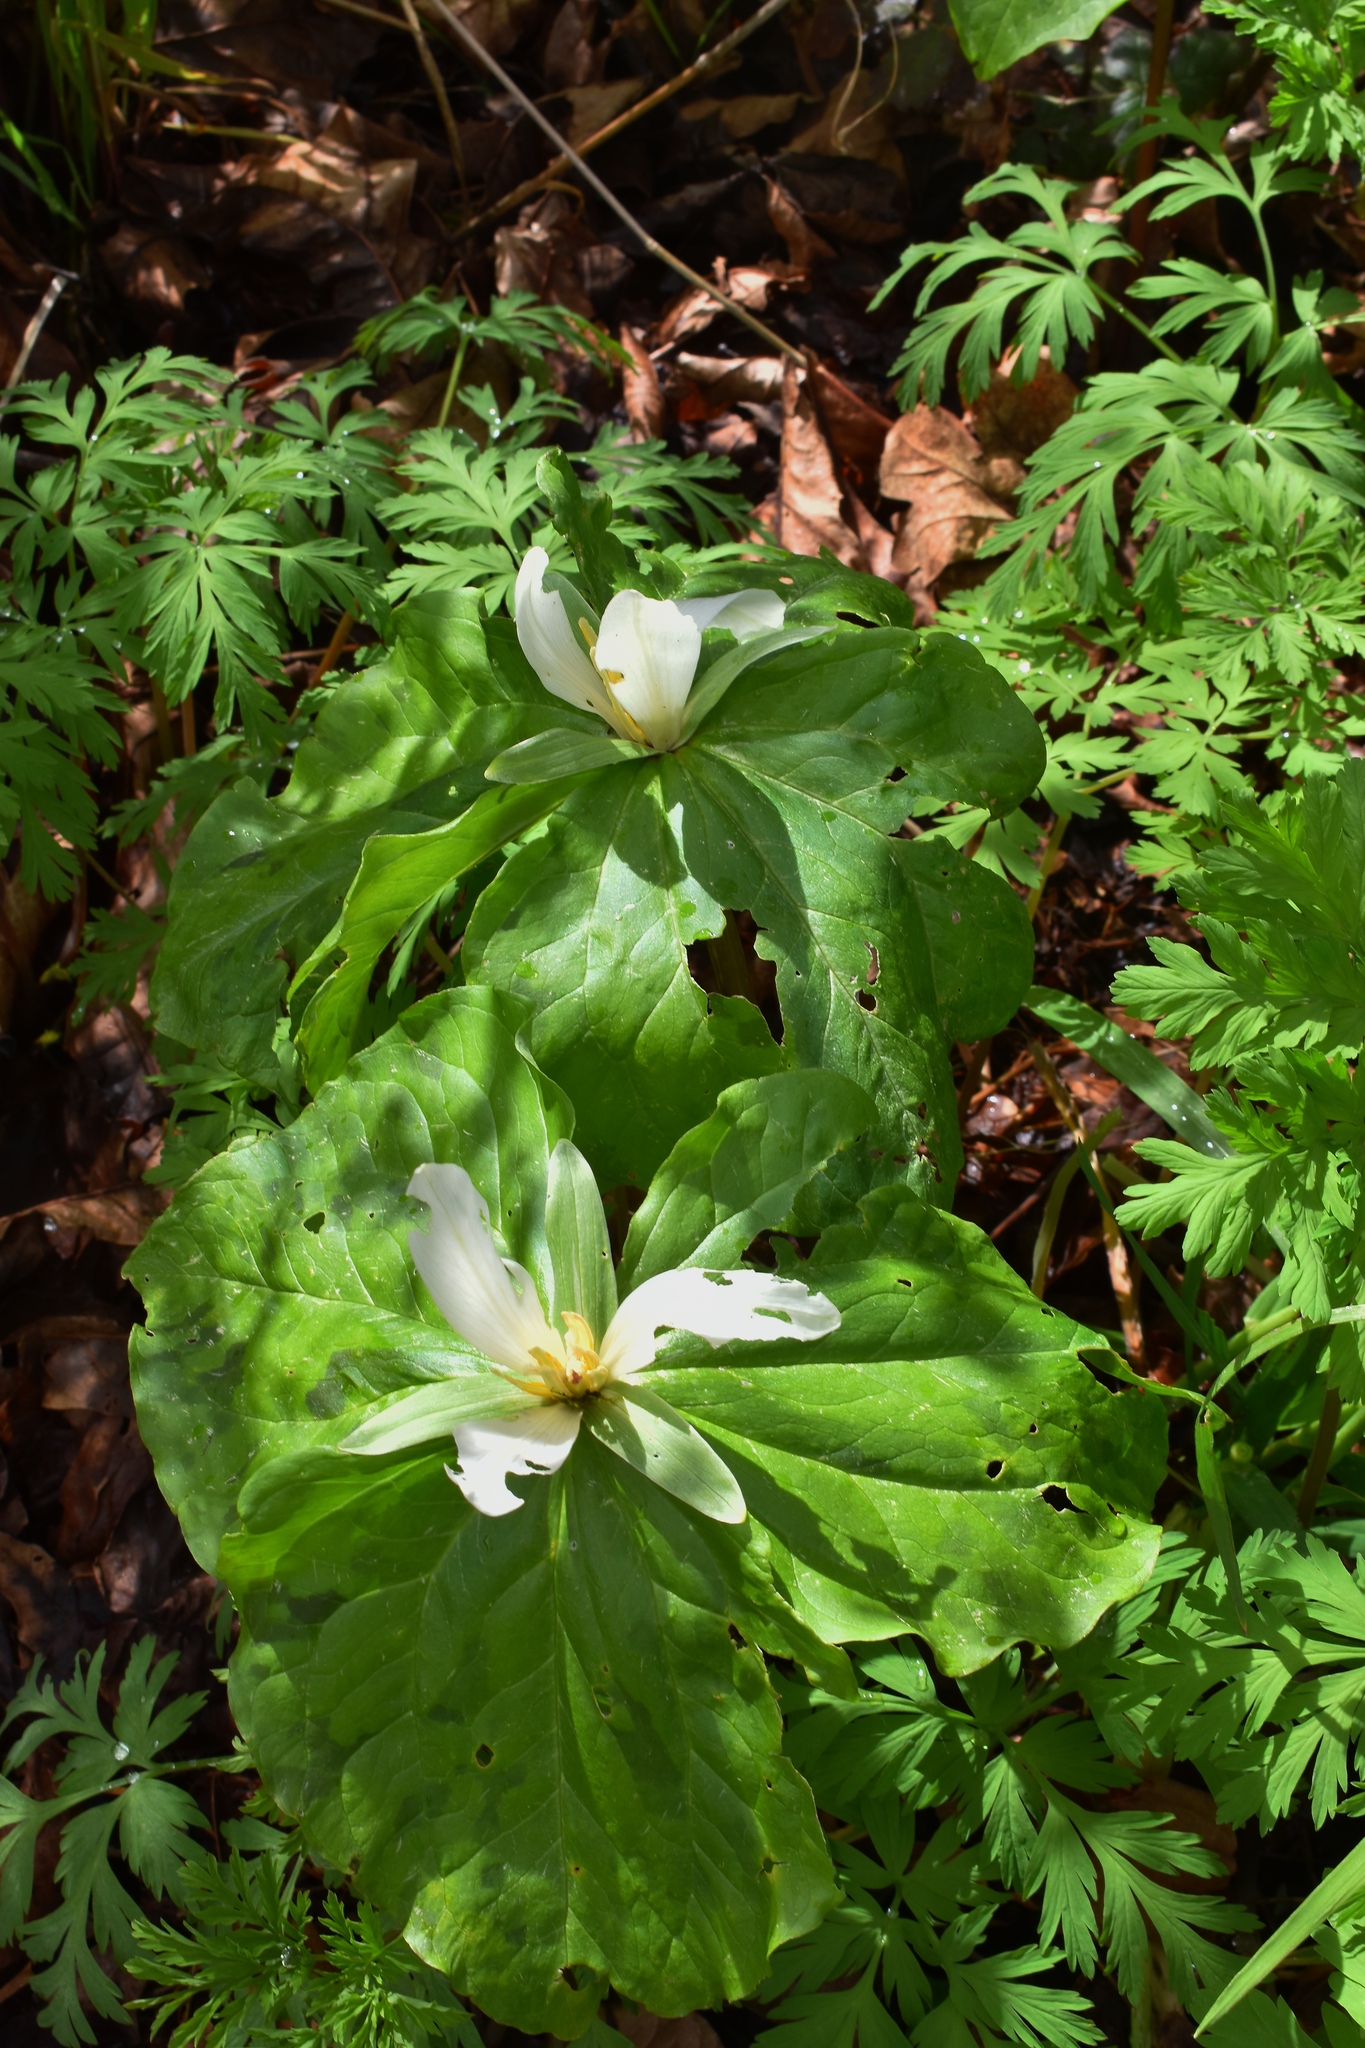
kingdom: Plantae
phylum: Tracheophyta
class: Liliopsida
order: Liliales
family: Melanthiaceae
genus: Trillium
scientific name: Trillium albidum
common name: Freeman's trillium
